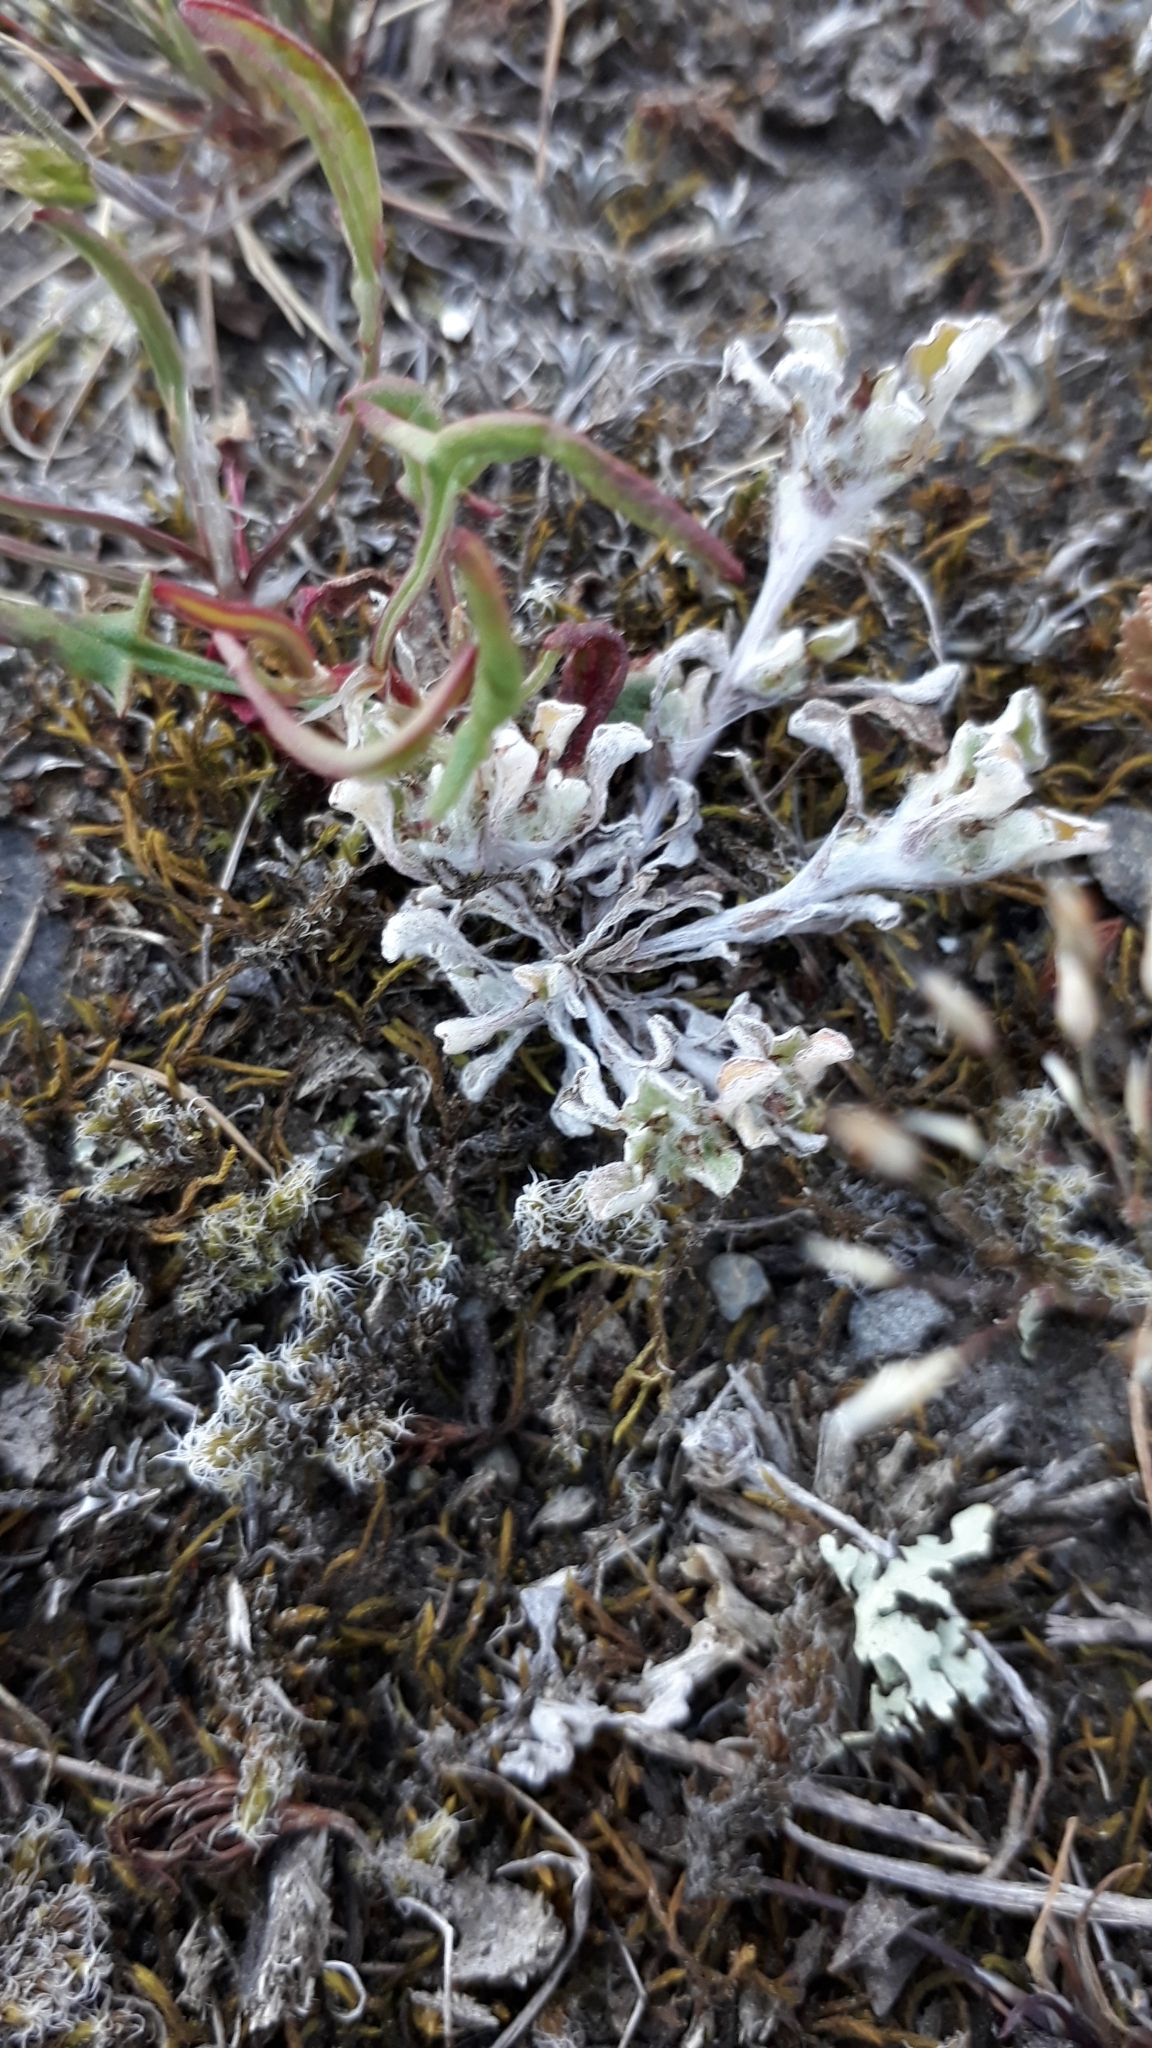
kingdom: Plantae
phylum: Tracheophyta
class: Magnoliopsida
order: Asterales
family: Asteraceae
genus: Stuartina
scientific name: Stuartina muelleri
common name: Spoon-leaved cudweed
